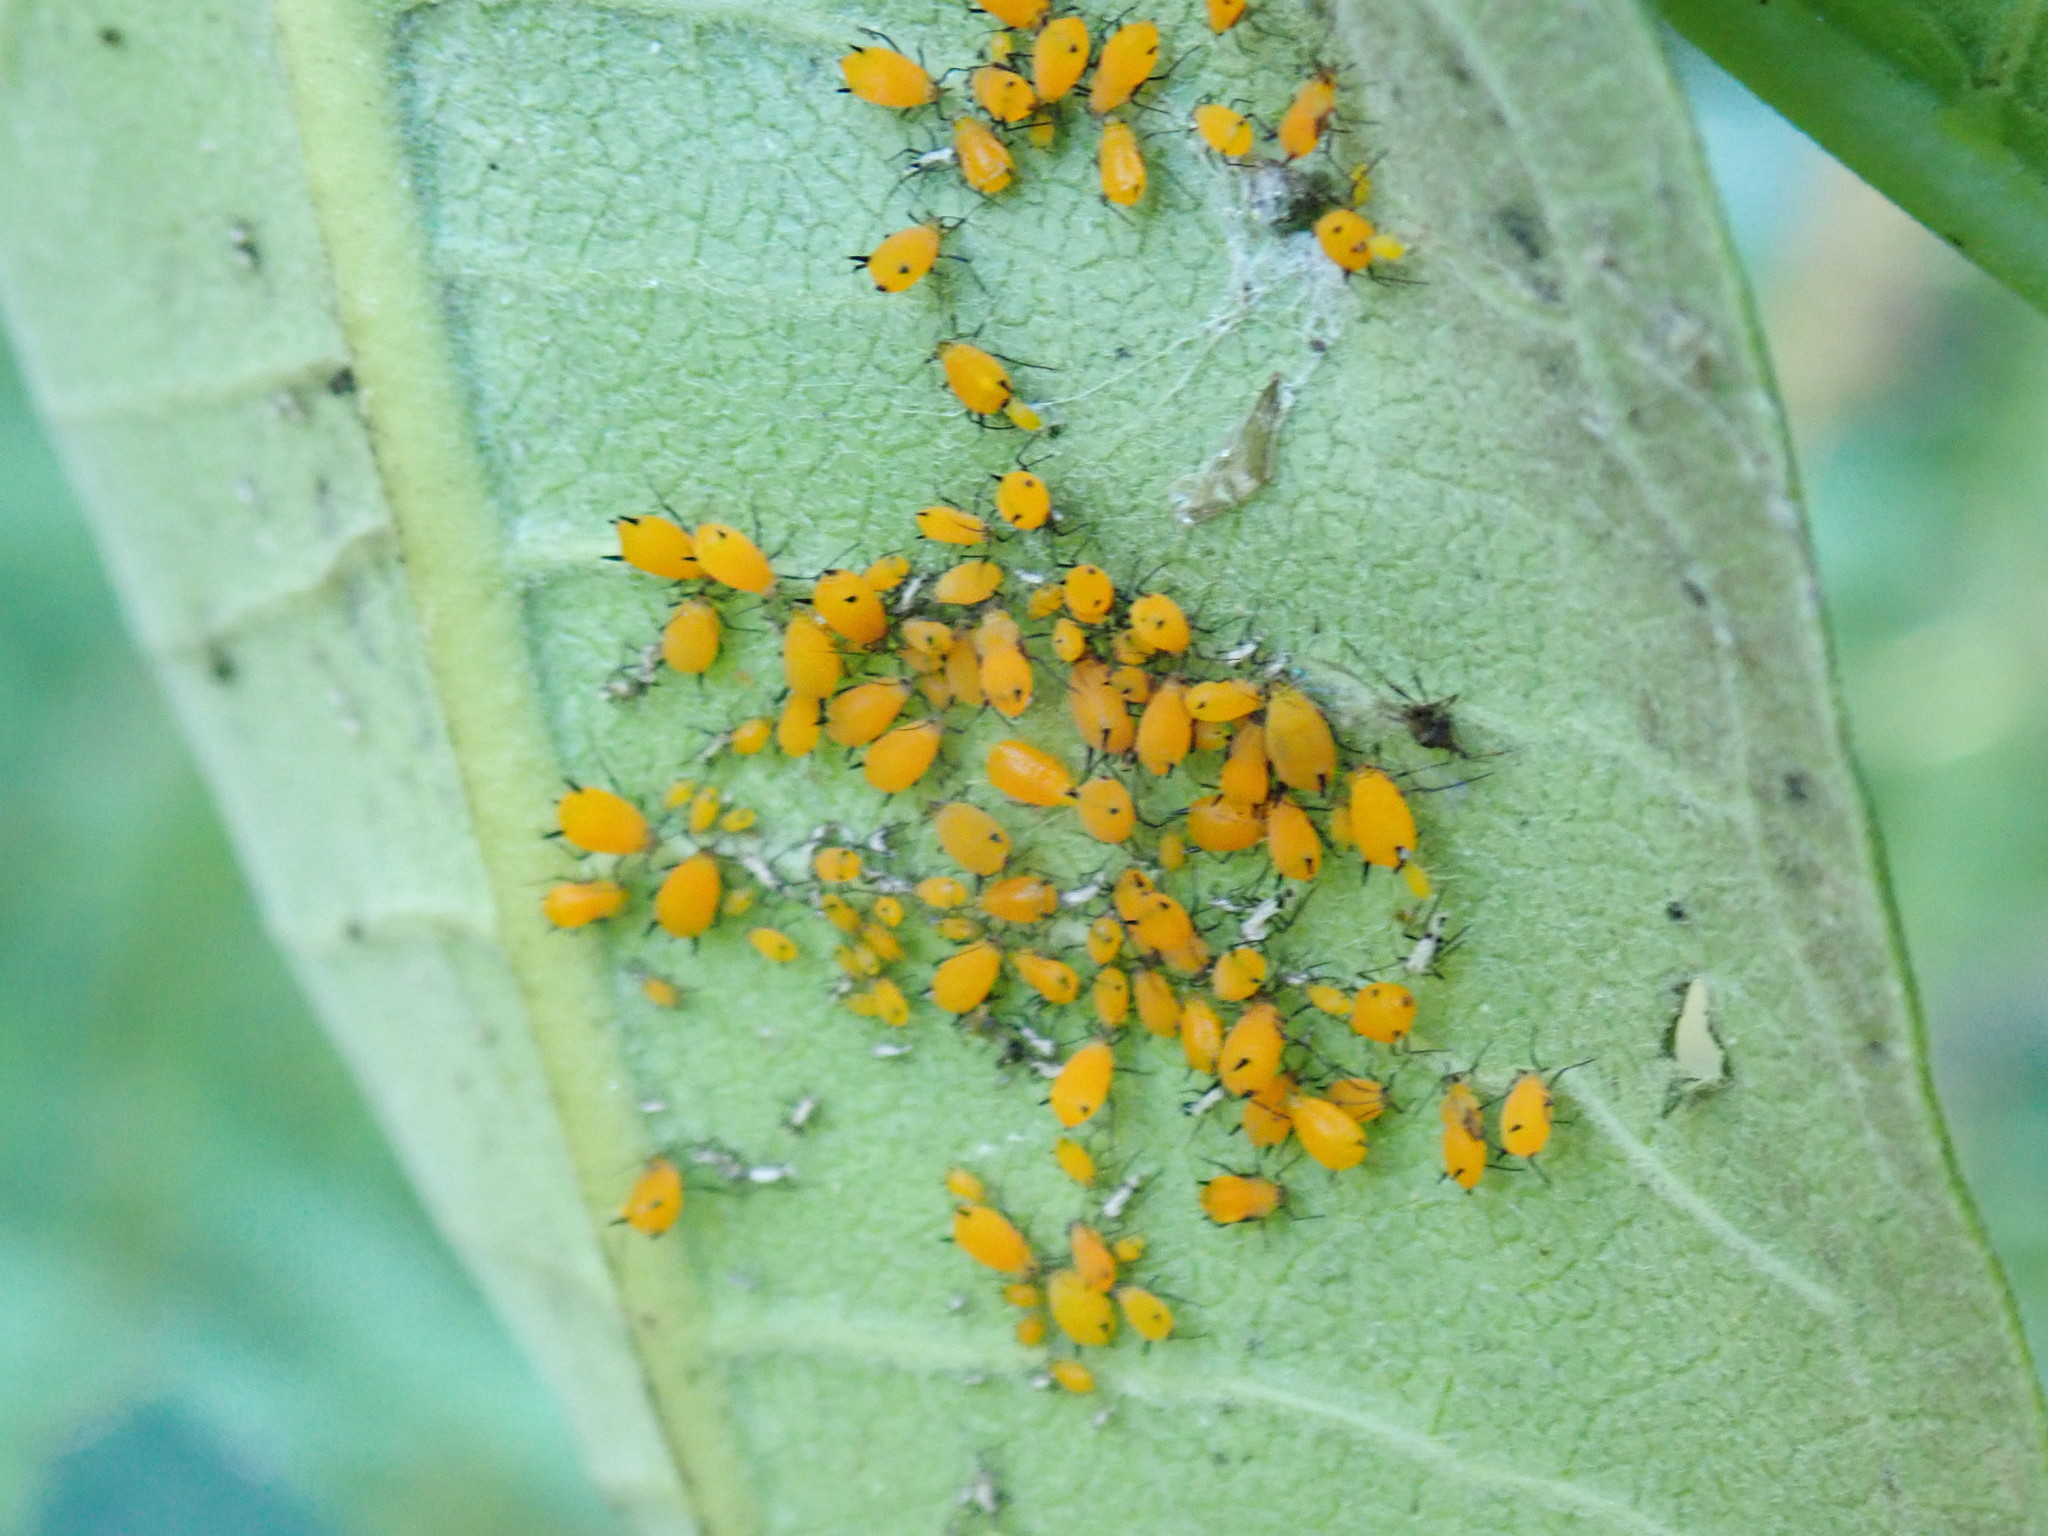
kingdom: Animalia
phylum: Arthropoda
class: Insecta
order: Hemiptera
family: Aphididae
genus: Aphis
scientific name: Aphis nerii
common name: Oleander aphid
